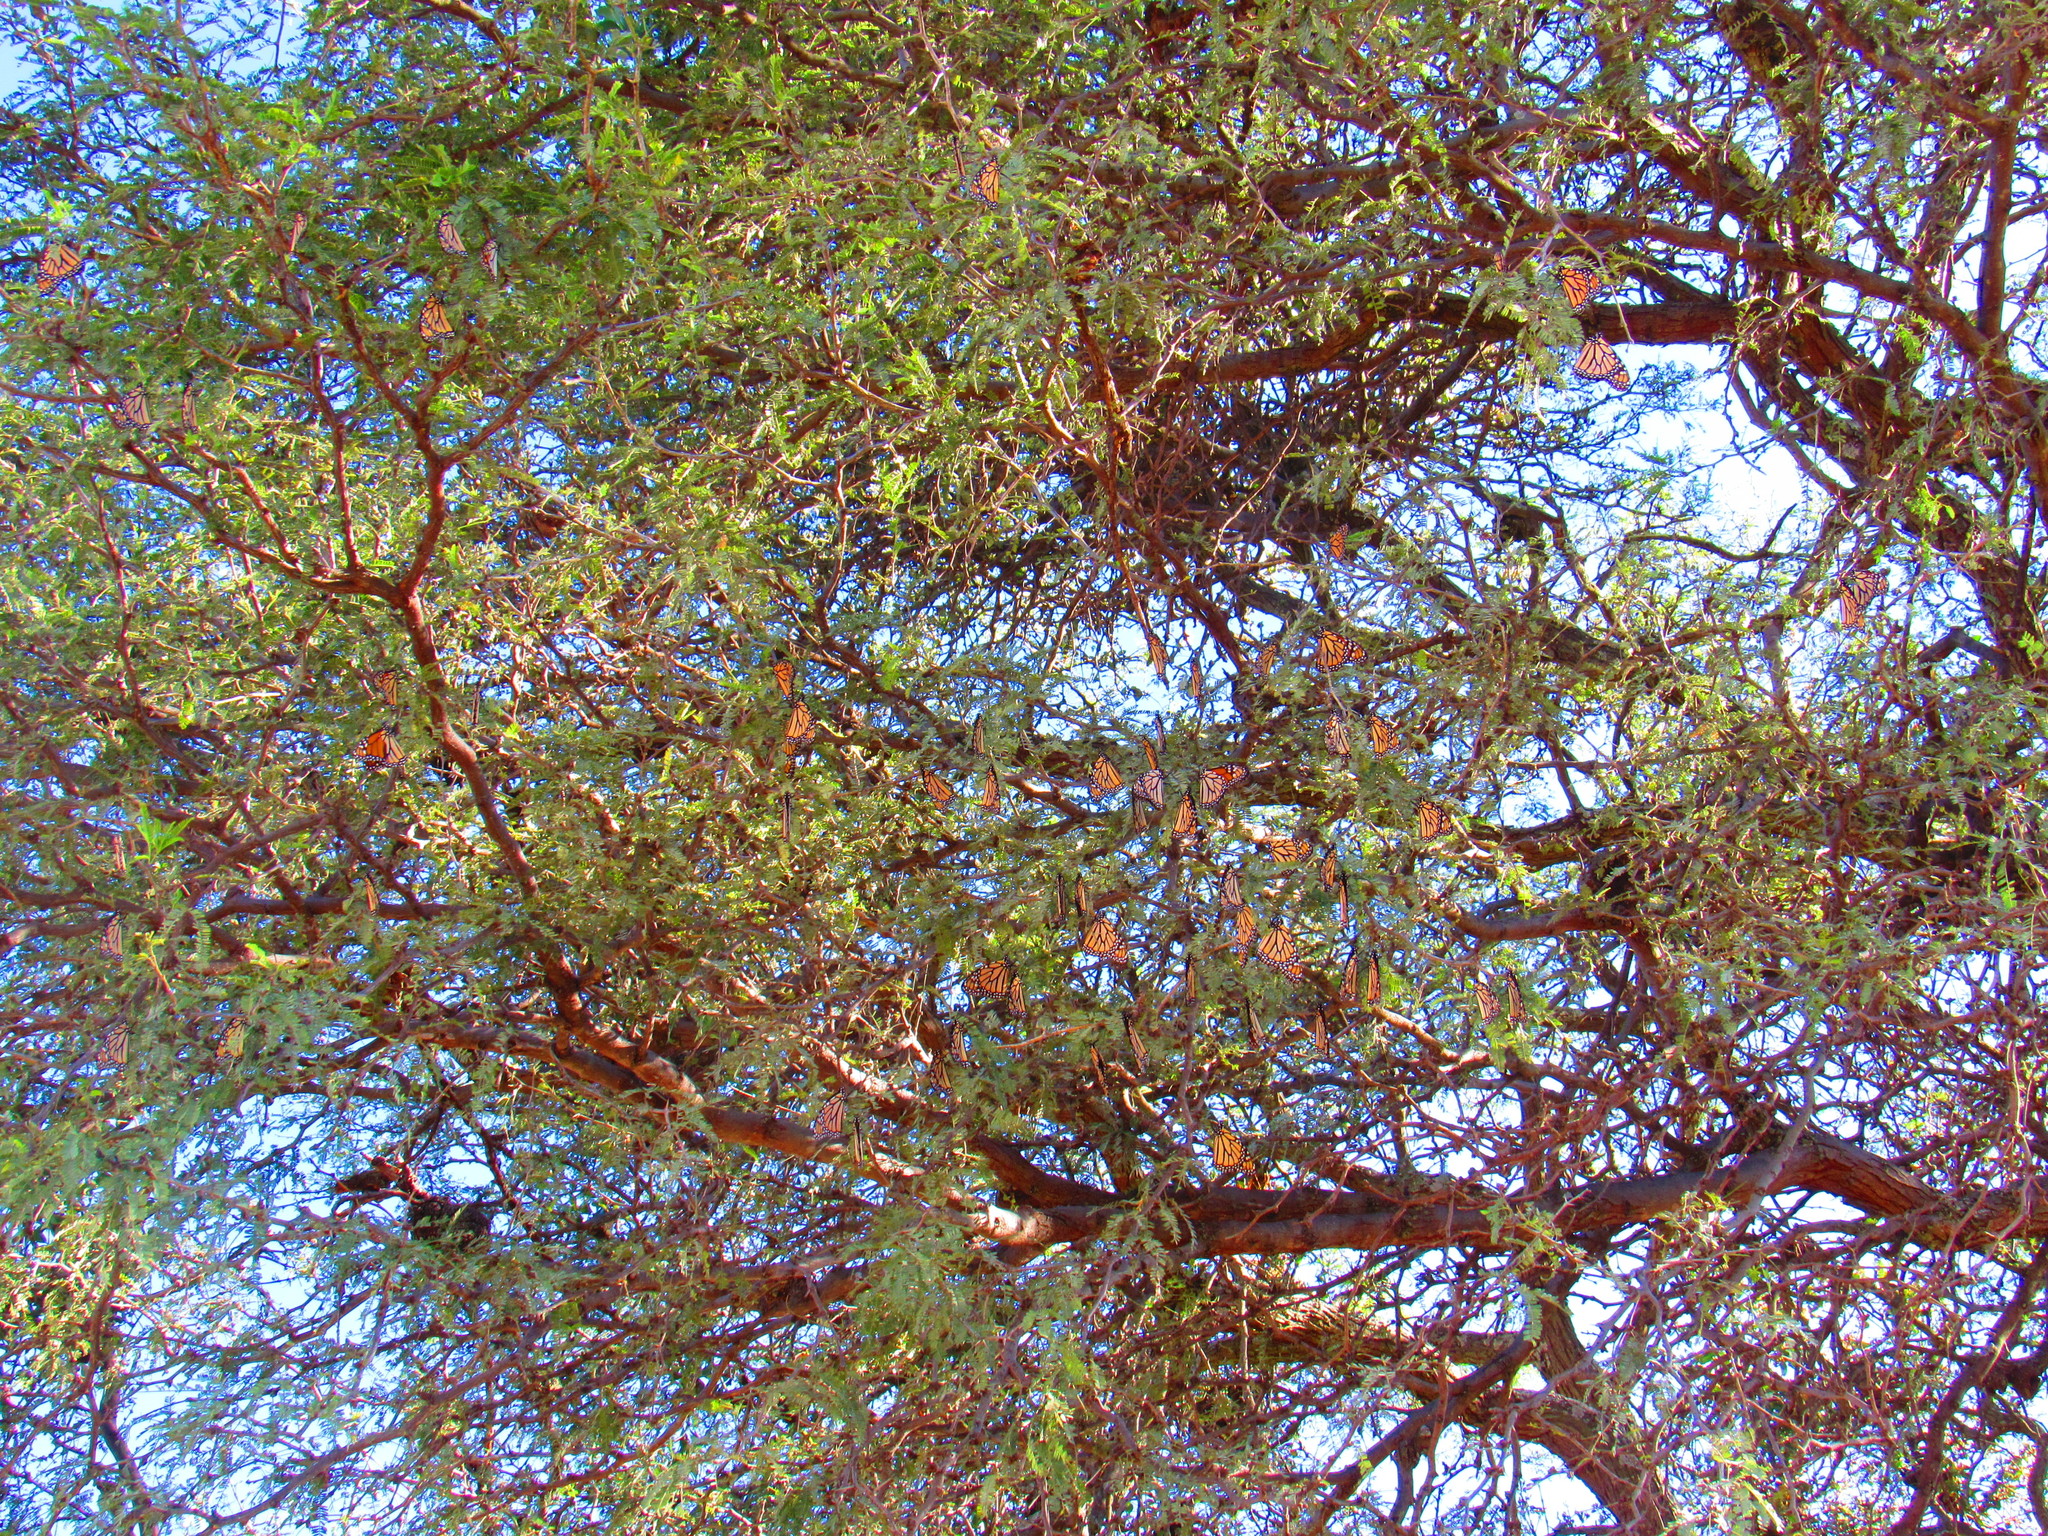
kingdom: Animalia
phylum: Arthropoda
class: Insecta
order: Lepidoptera
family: Nymphalidae
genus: Danaus
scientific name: Danaus plexippus
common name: Monarch
